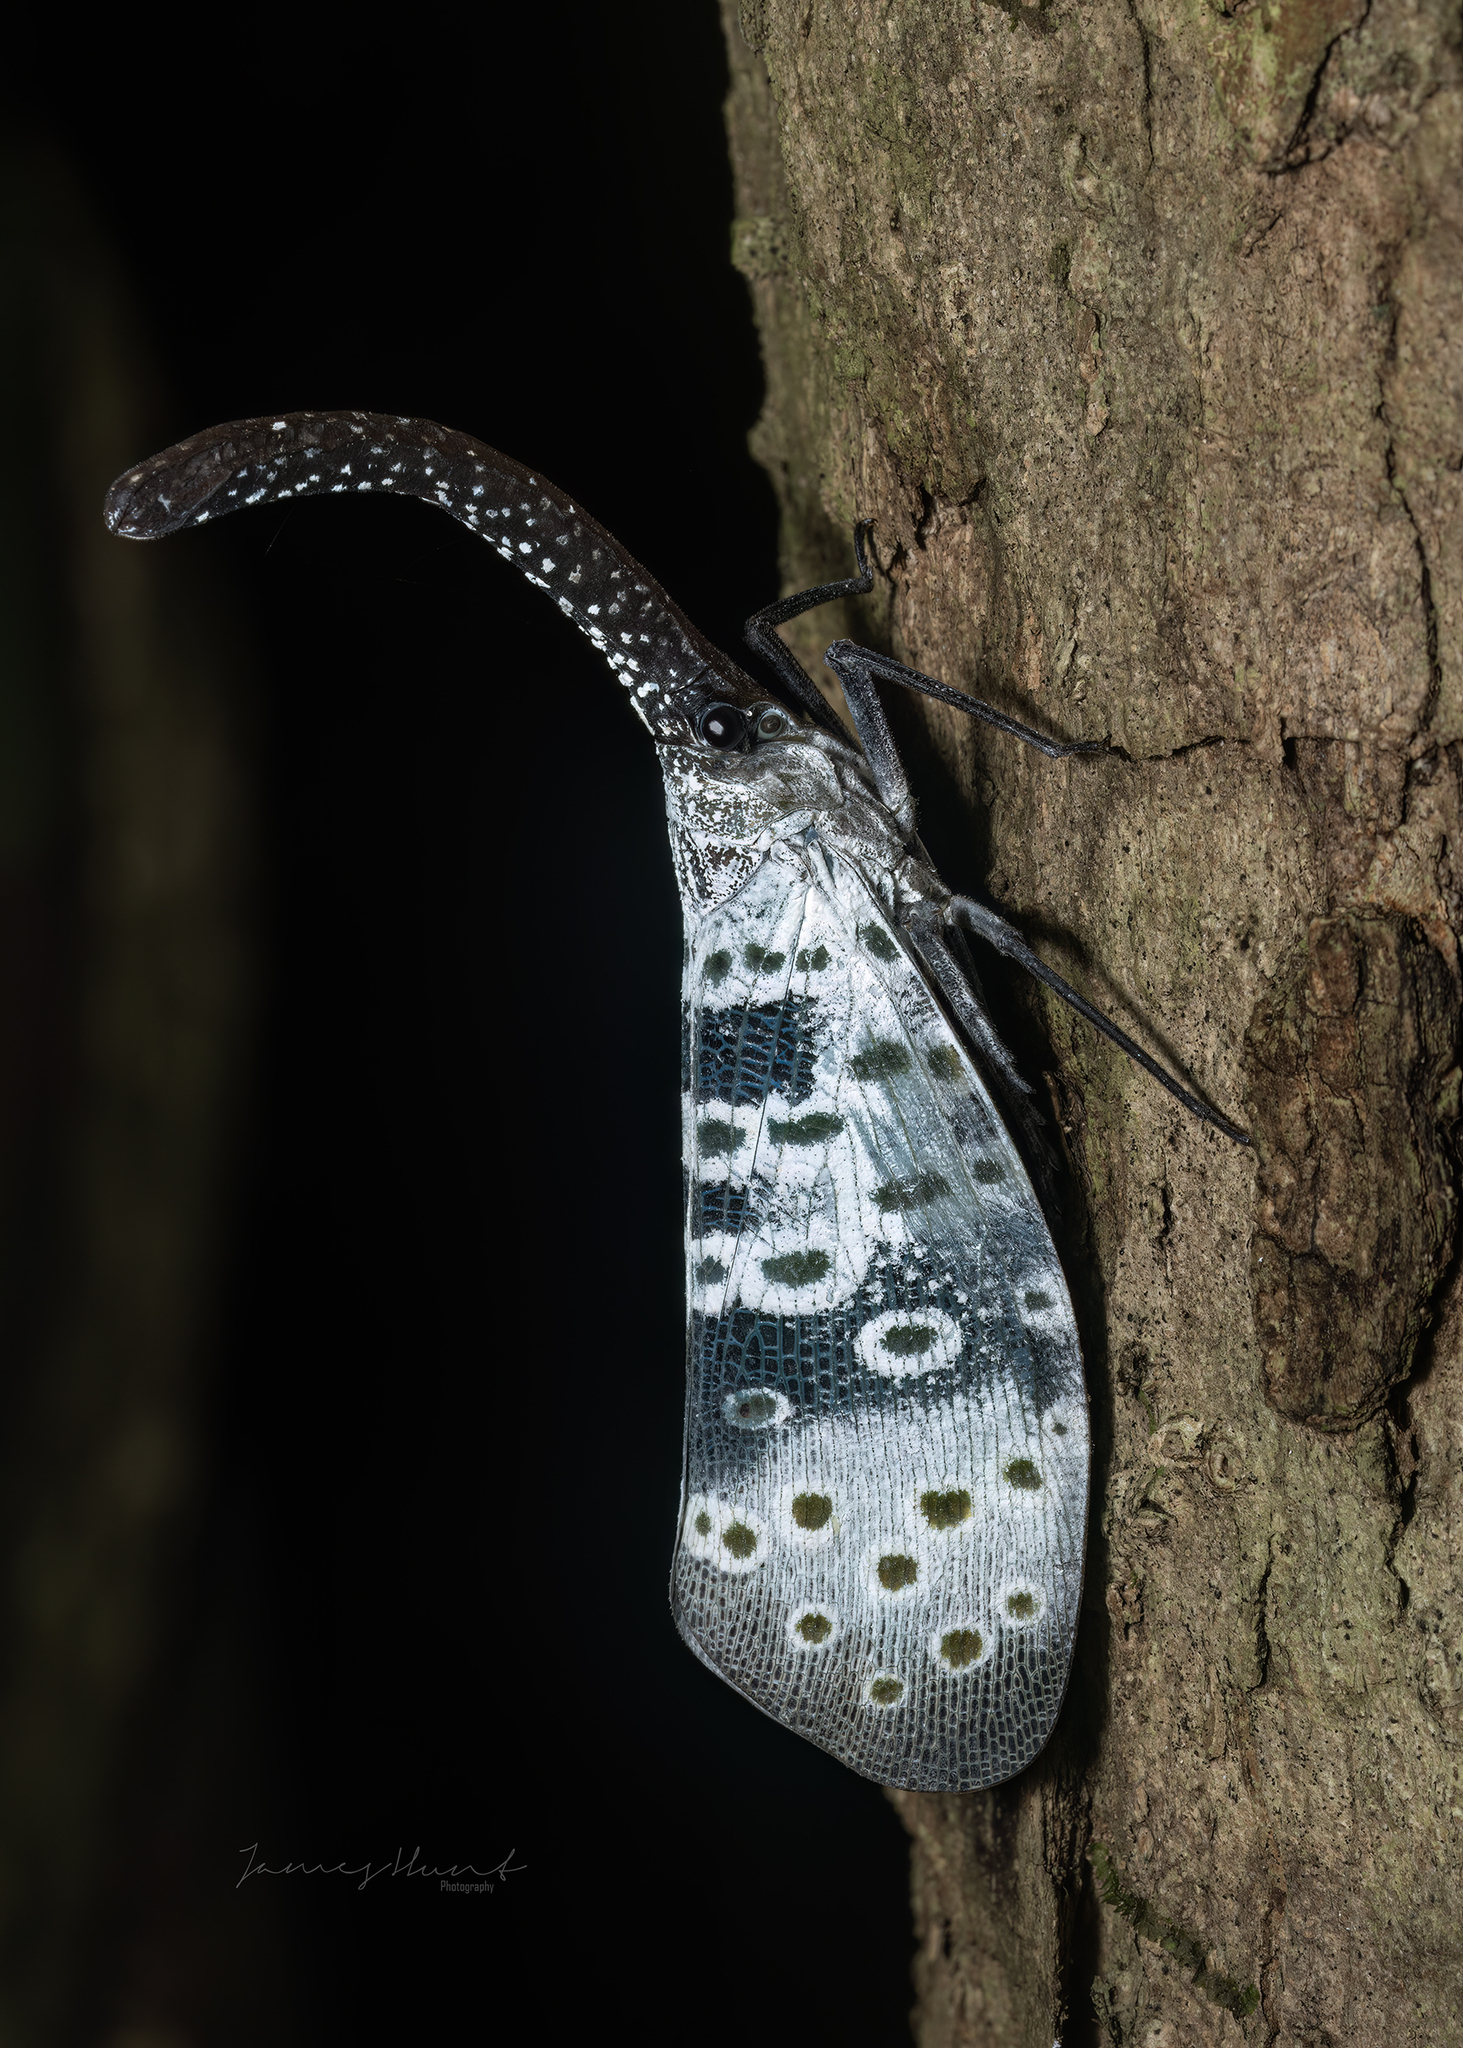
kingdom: Animalia
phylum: Arthropoda
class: Insecta
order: Hemiptera
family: Fulgoridae
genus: Pyrops
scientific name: Pyrops coelestinus
